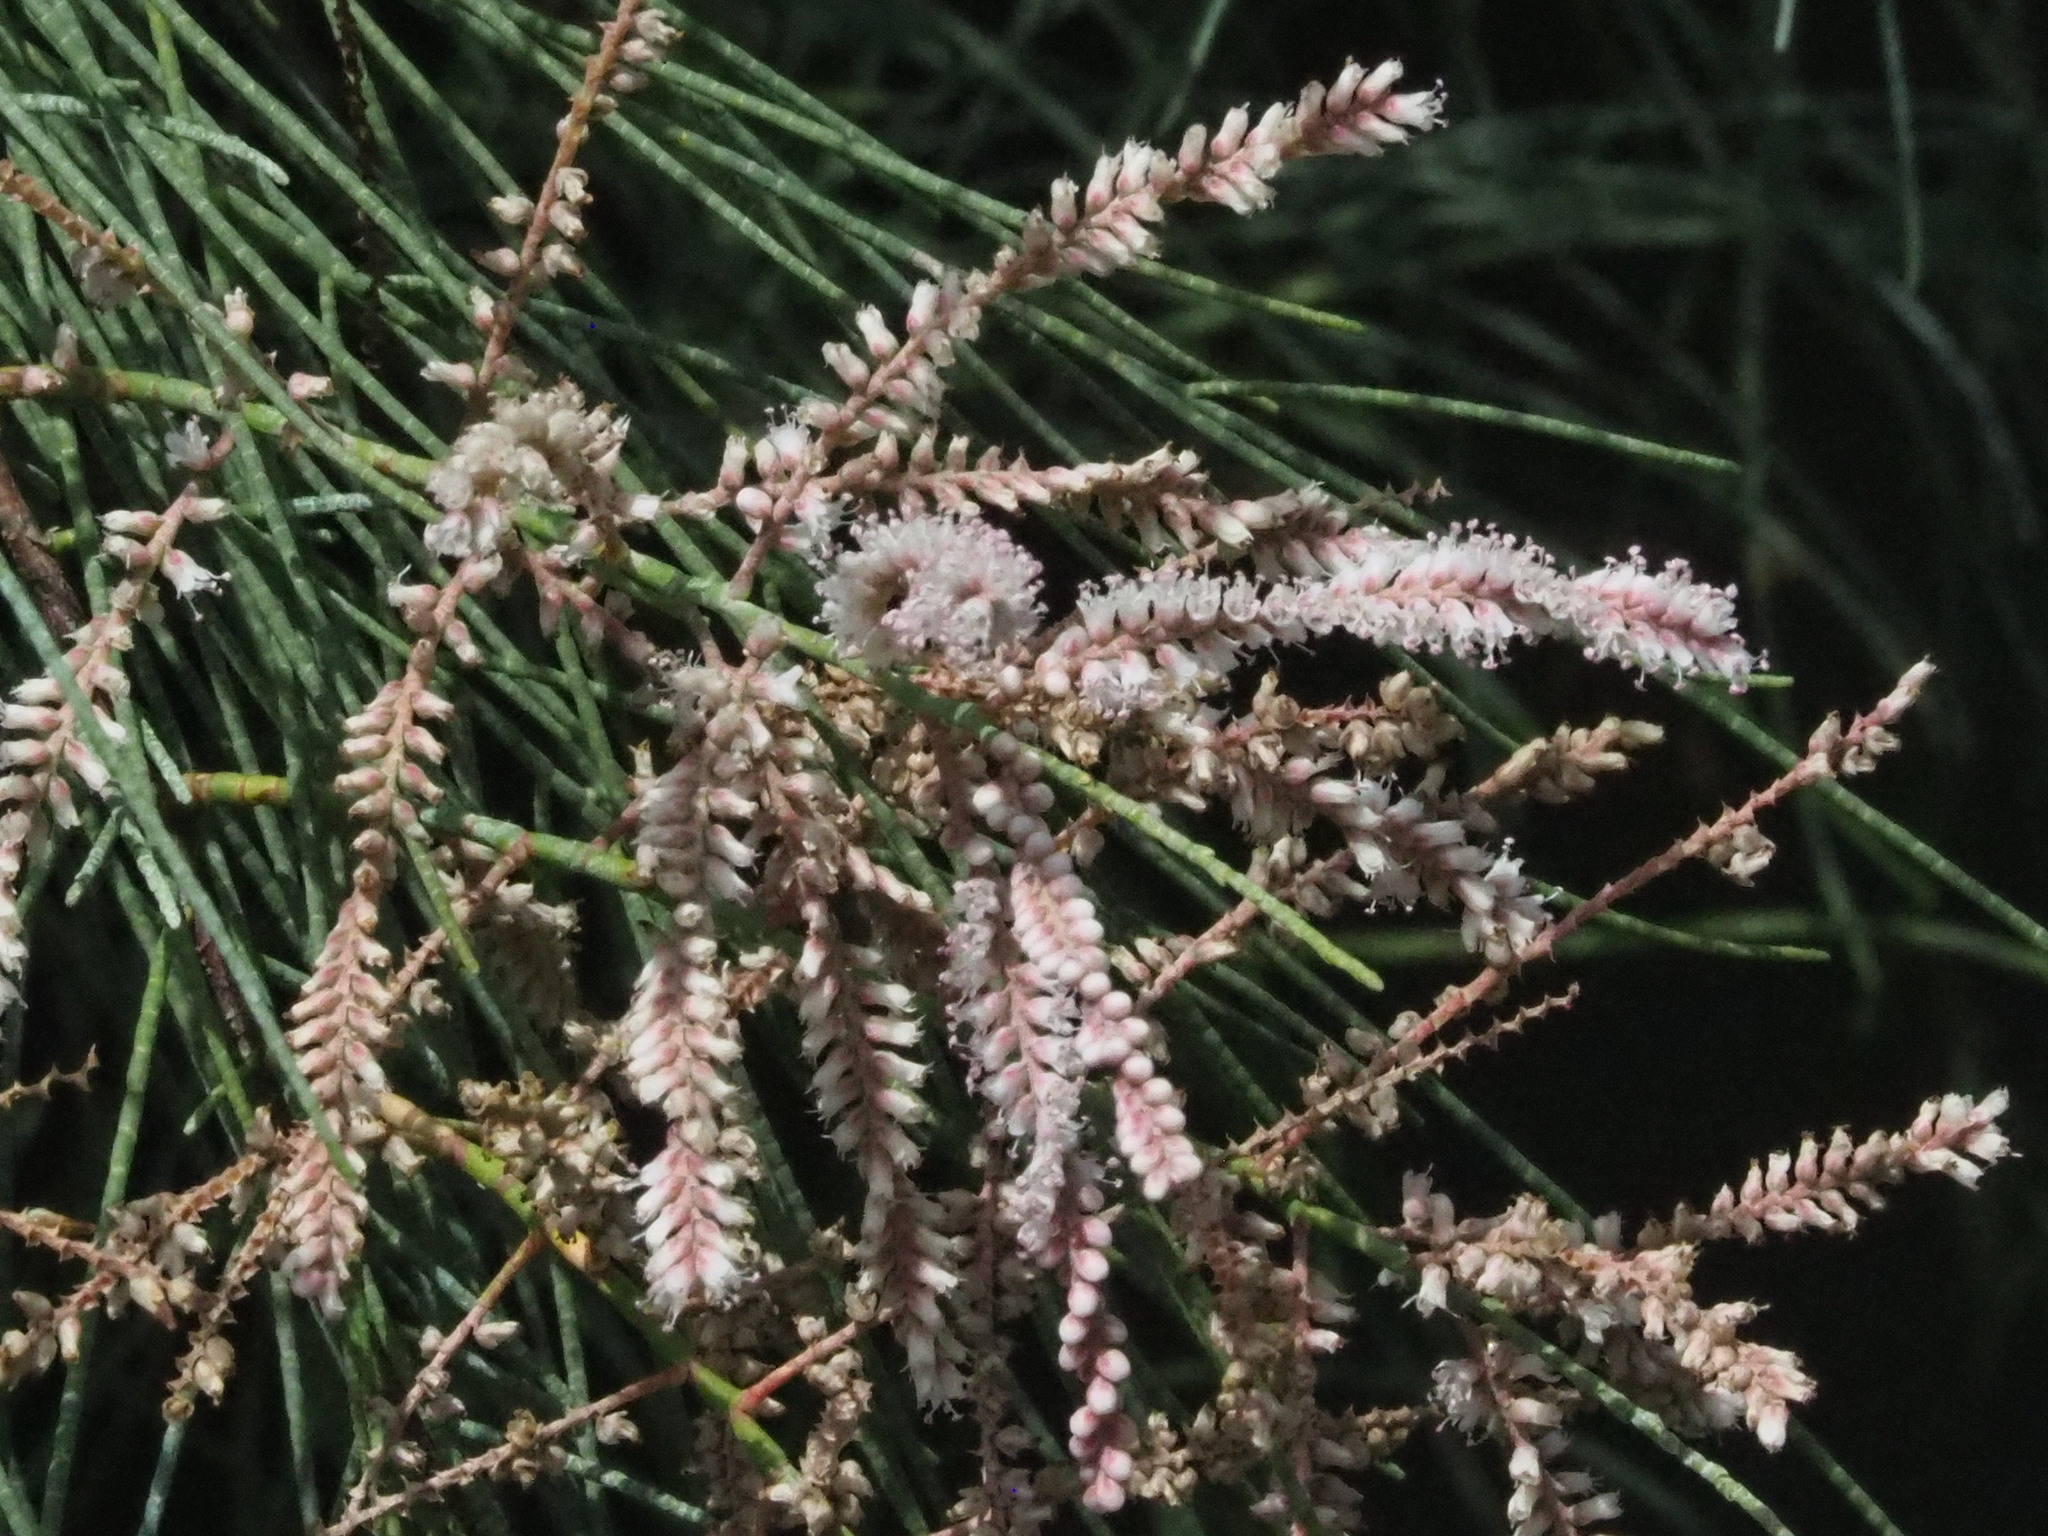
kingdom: Plantae
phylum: Tracheophyta
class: Magnoliopsida
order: Caryophyllales
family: Tamaricaceae
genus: Tamarix
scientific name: Tamarix aphylla
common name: Athel tamarisk
